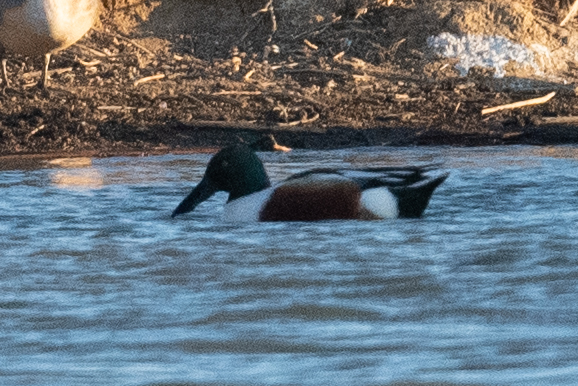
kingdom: Animalia
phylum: Chordata
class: Aves
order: Anseriformes
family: Anatidae
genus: Spatula
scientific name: Spatula clypeata
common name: Northern shoveler
